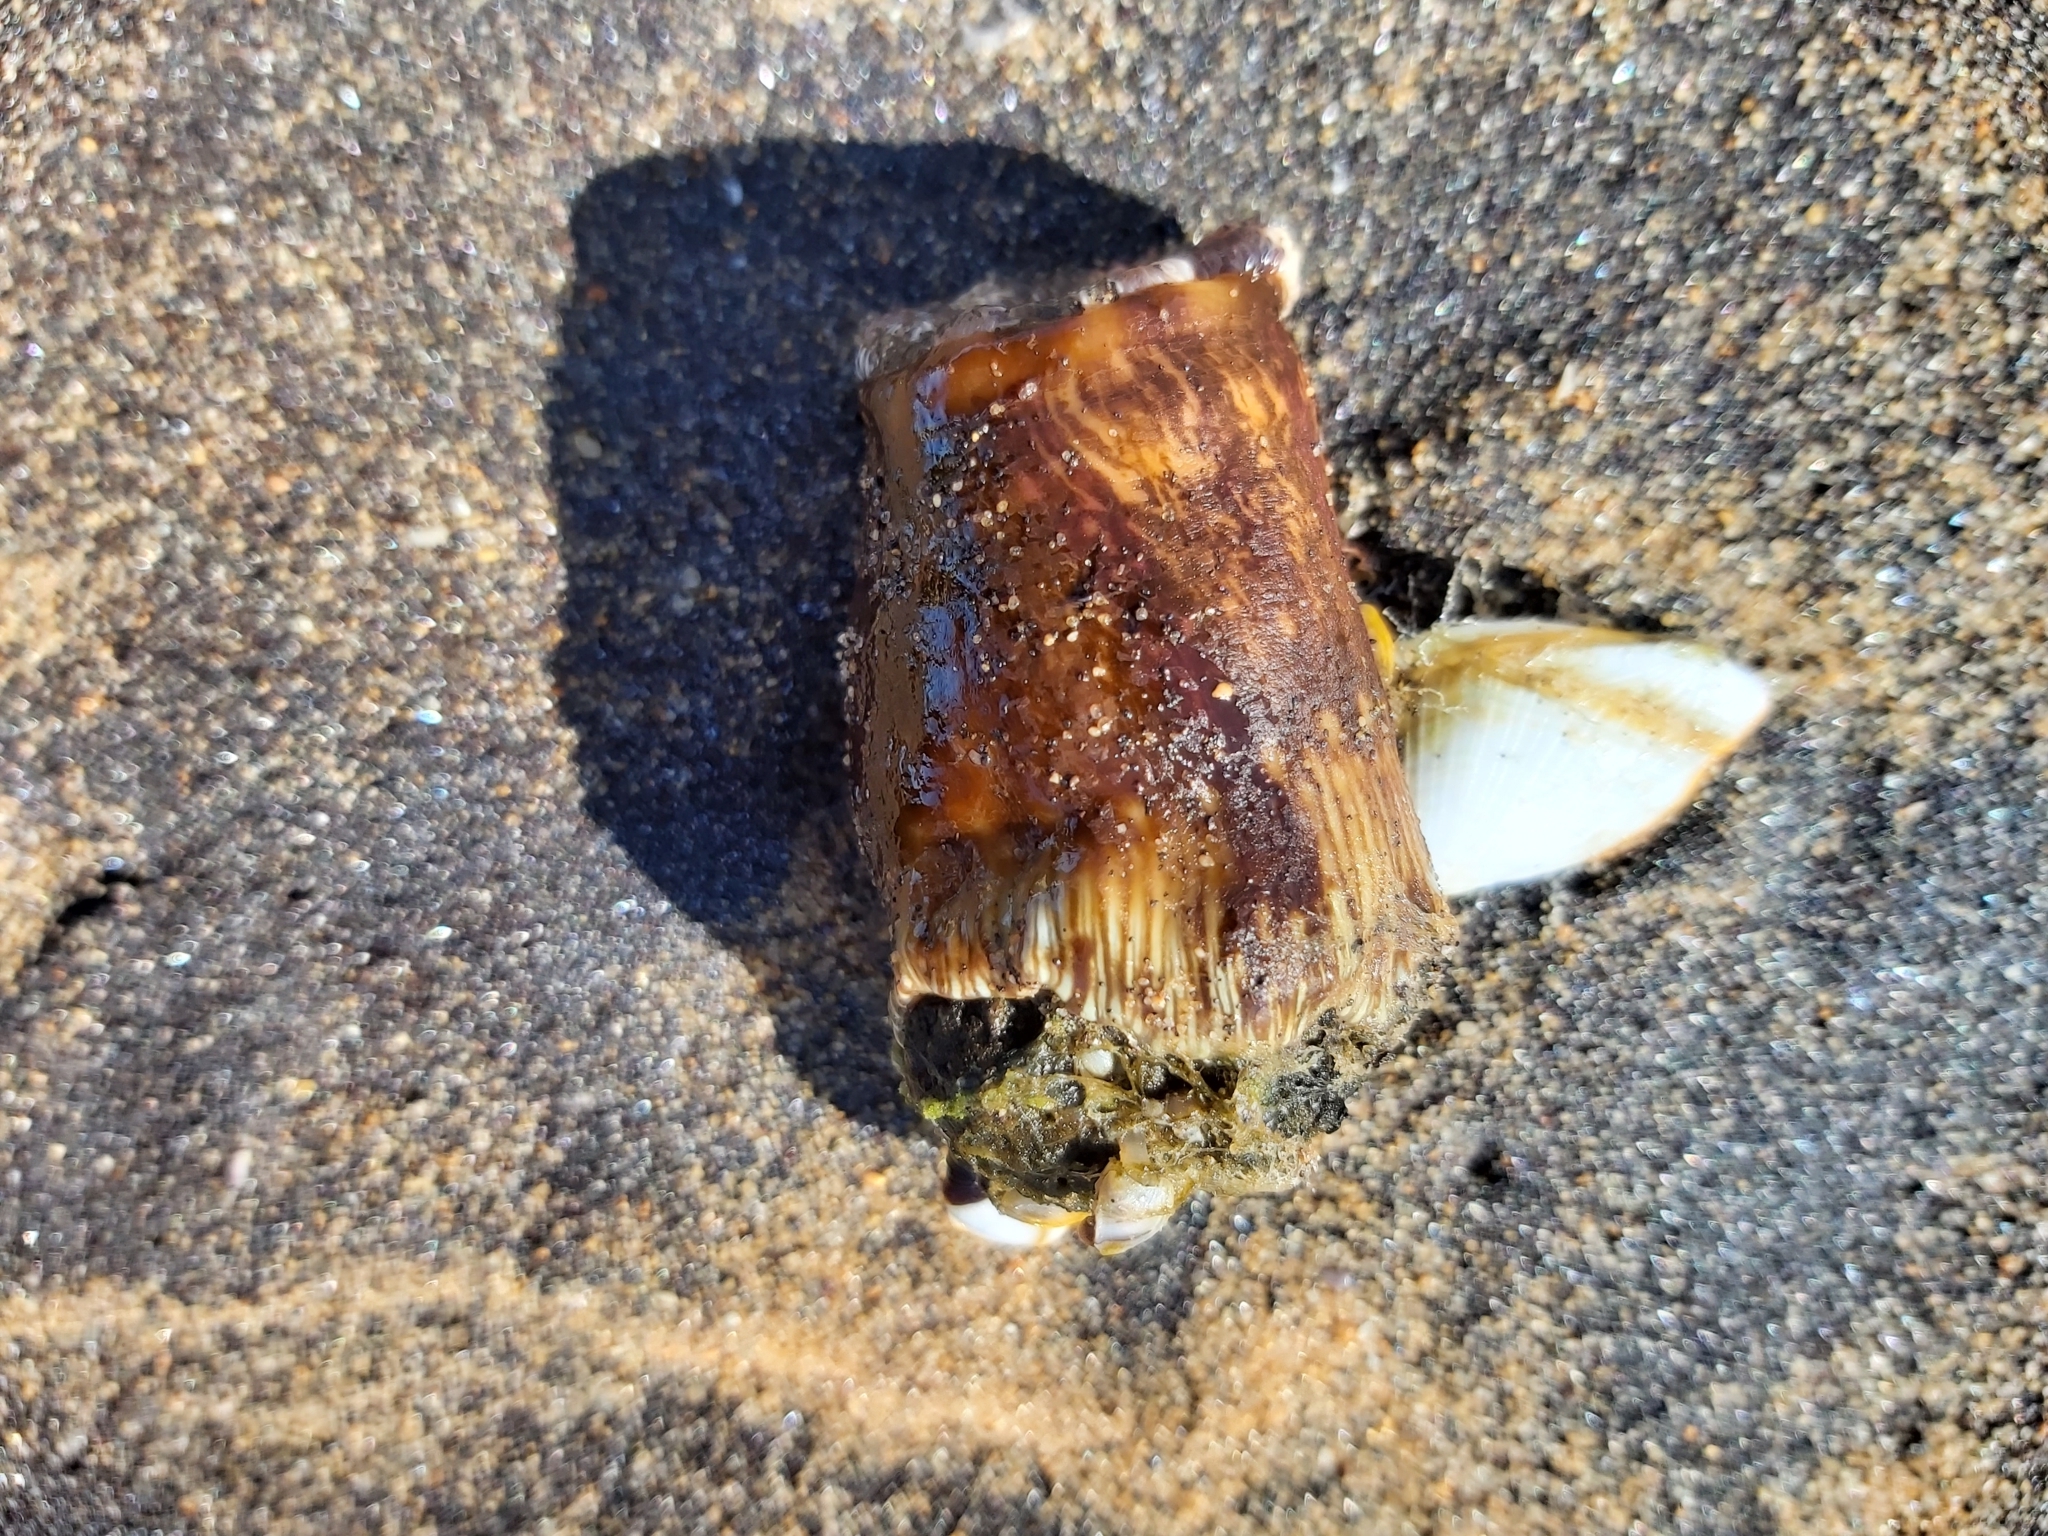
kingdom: Animalia
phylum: Arthropoda
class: Maxillopoda
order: Pedunculata
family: Lepadidae
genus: Lepas
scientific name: Lepas anserifera
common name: Goose barnacle
